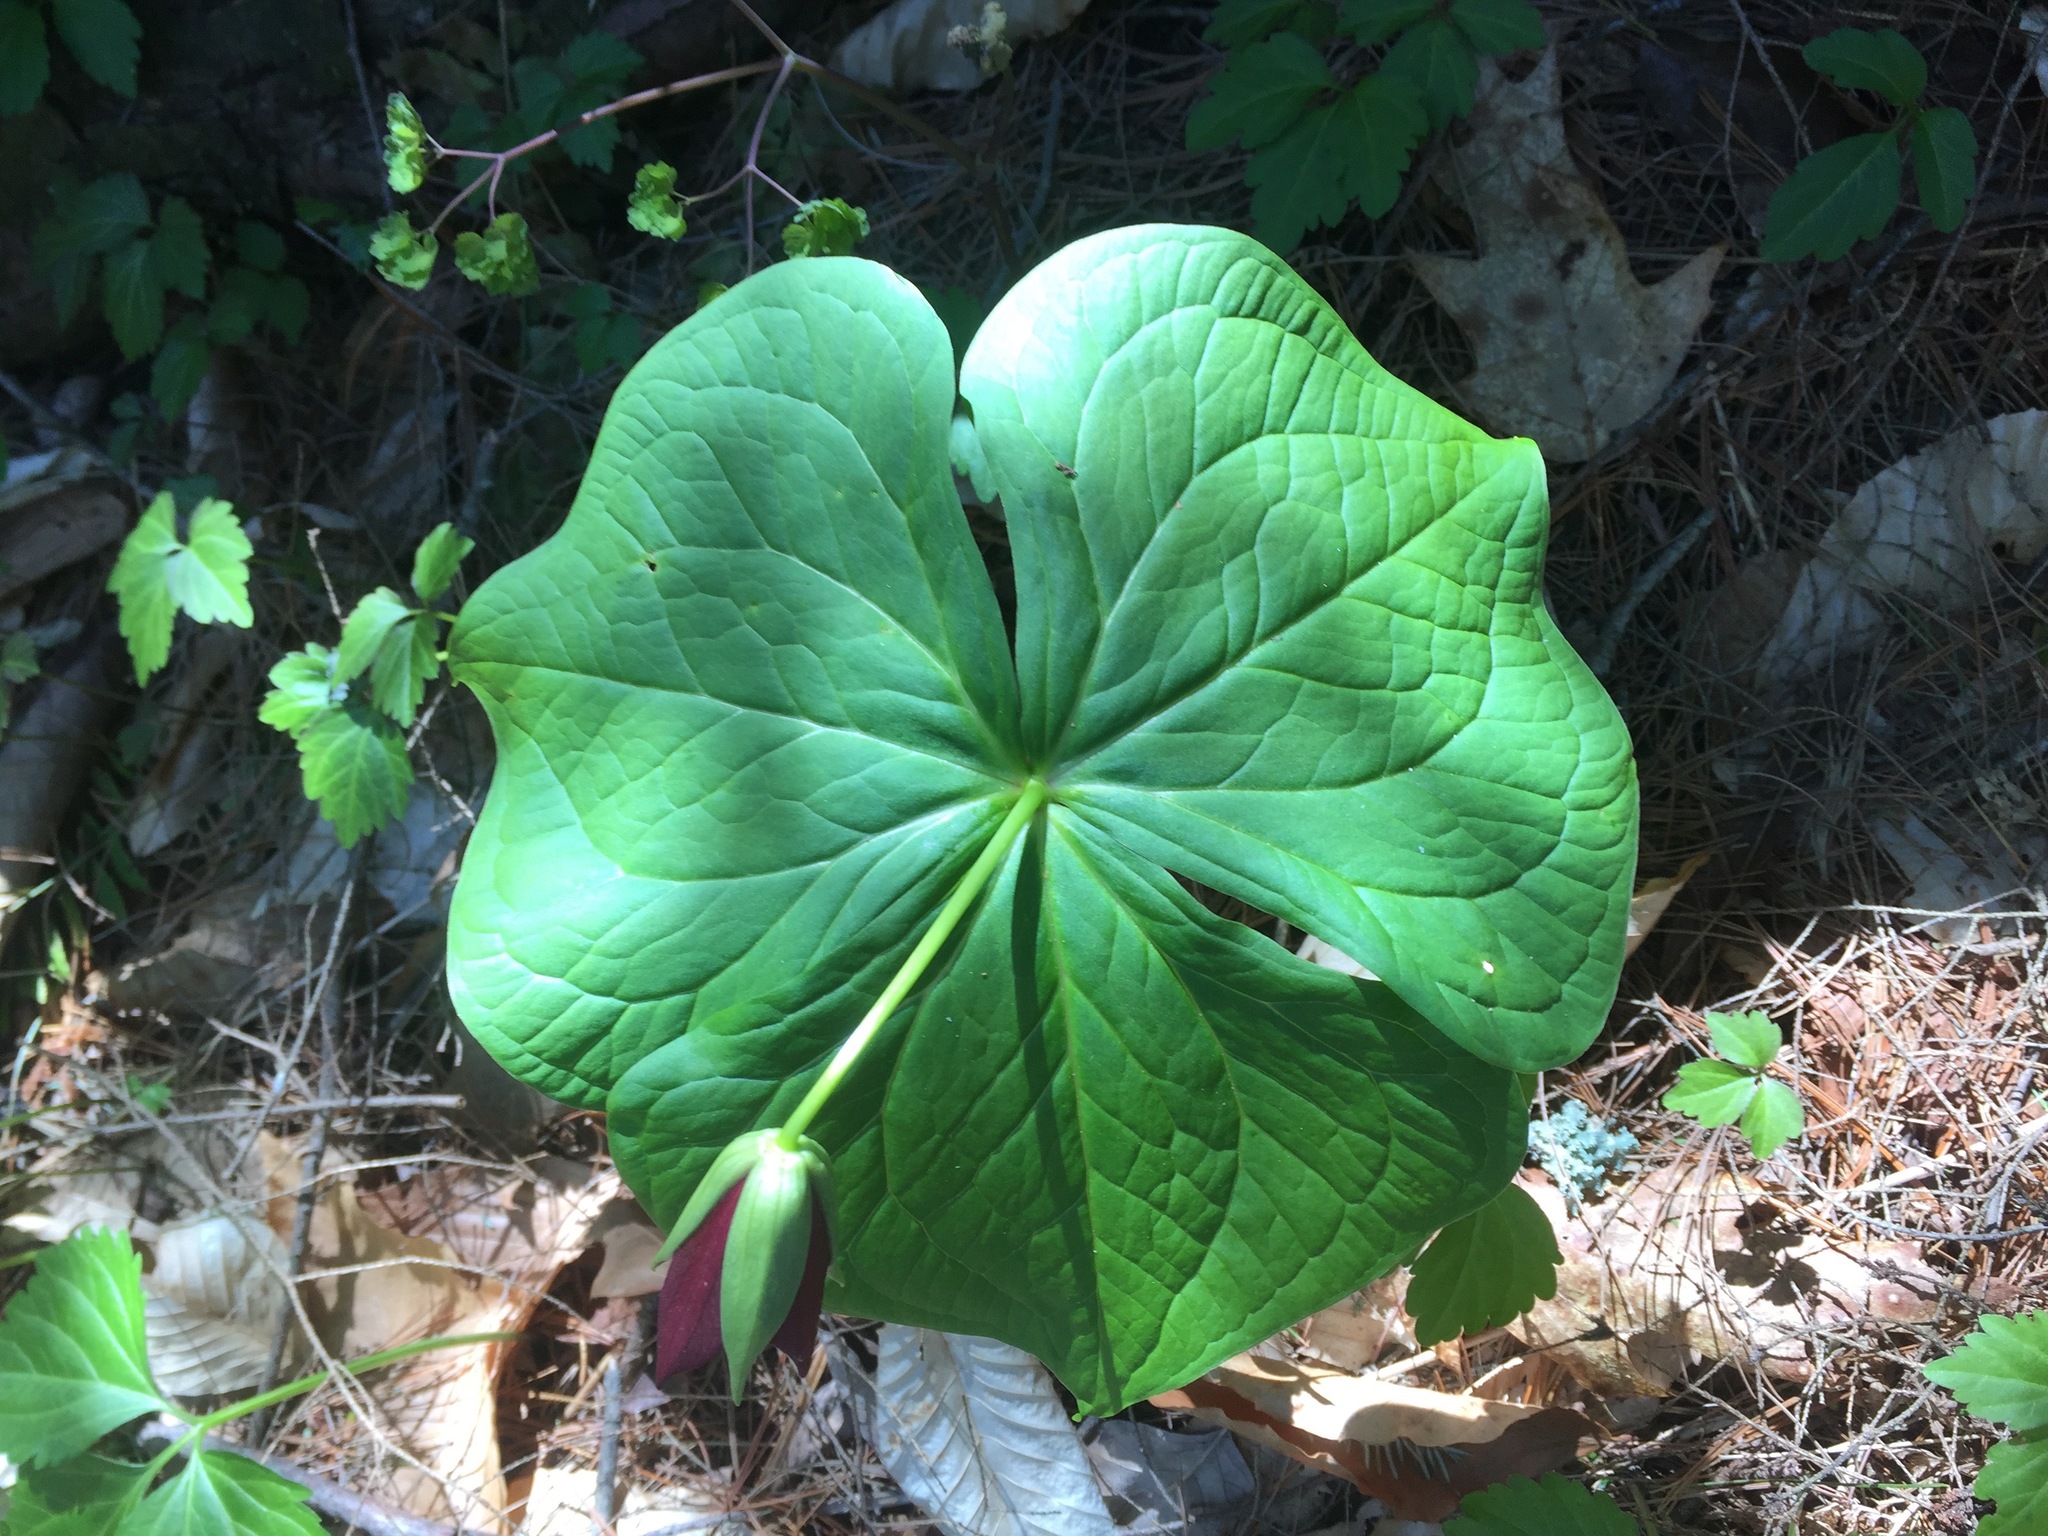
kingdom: Plantae
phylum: Tracheophyta
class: Liliopsida
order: Liliales
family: Melanthiaceae
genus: Trillium
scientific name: Trillium erectum
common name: Purple trillium
